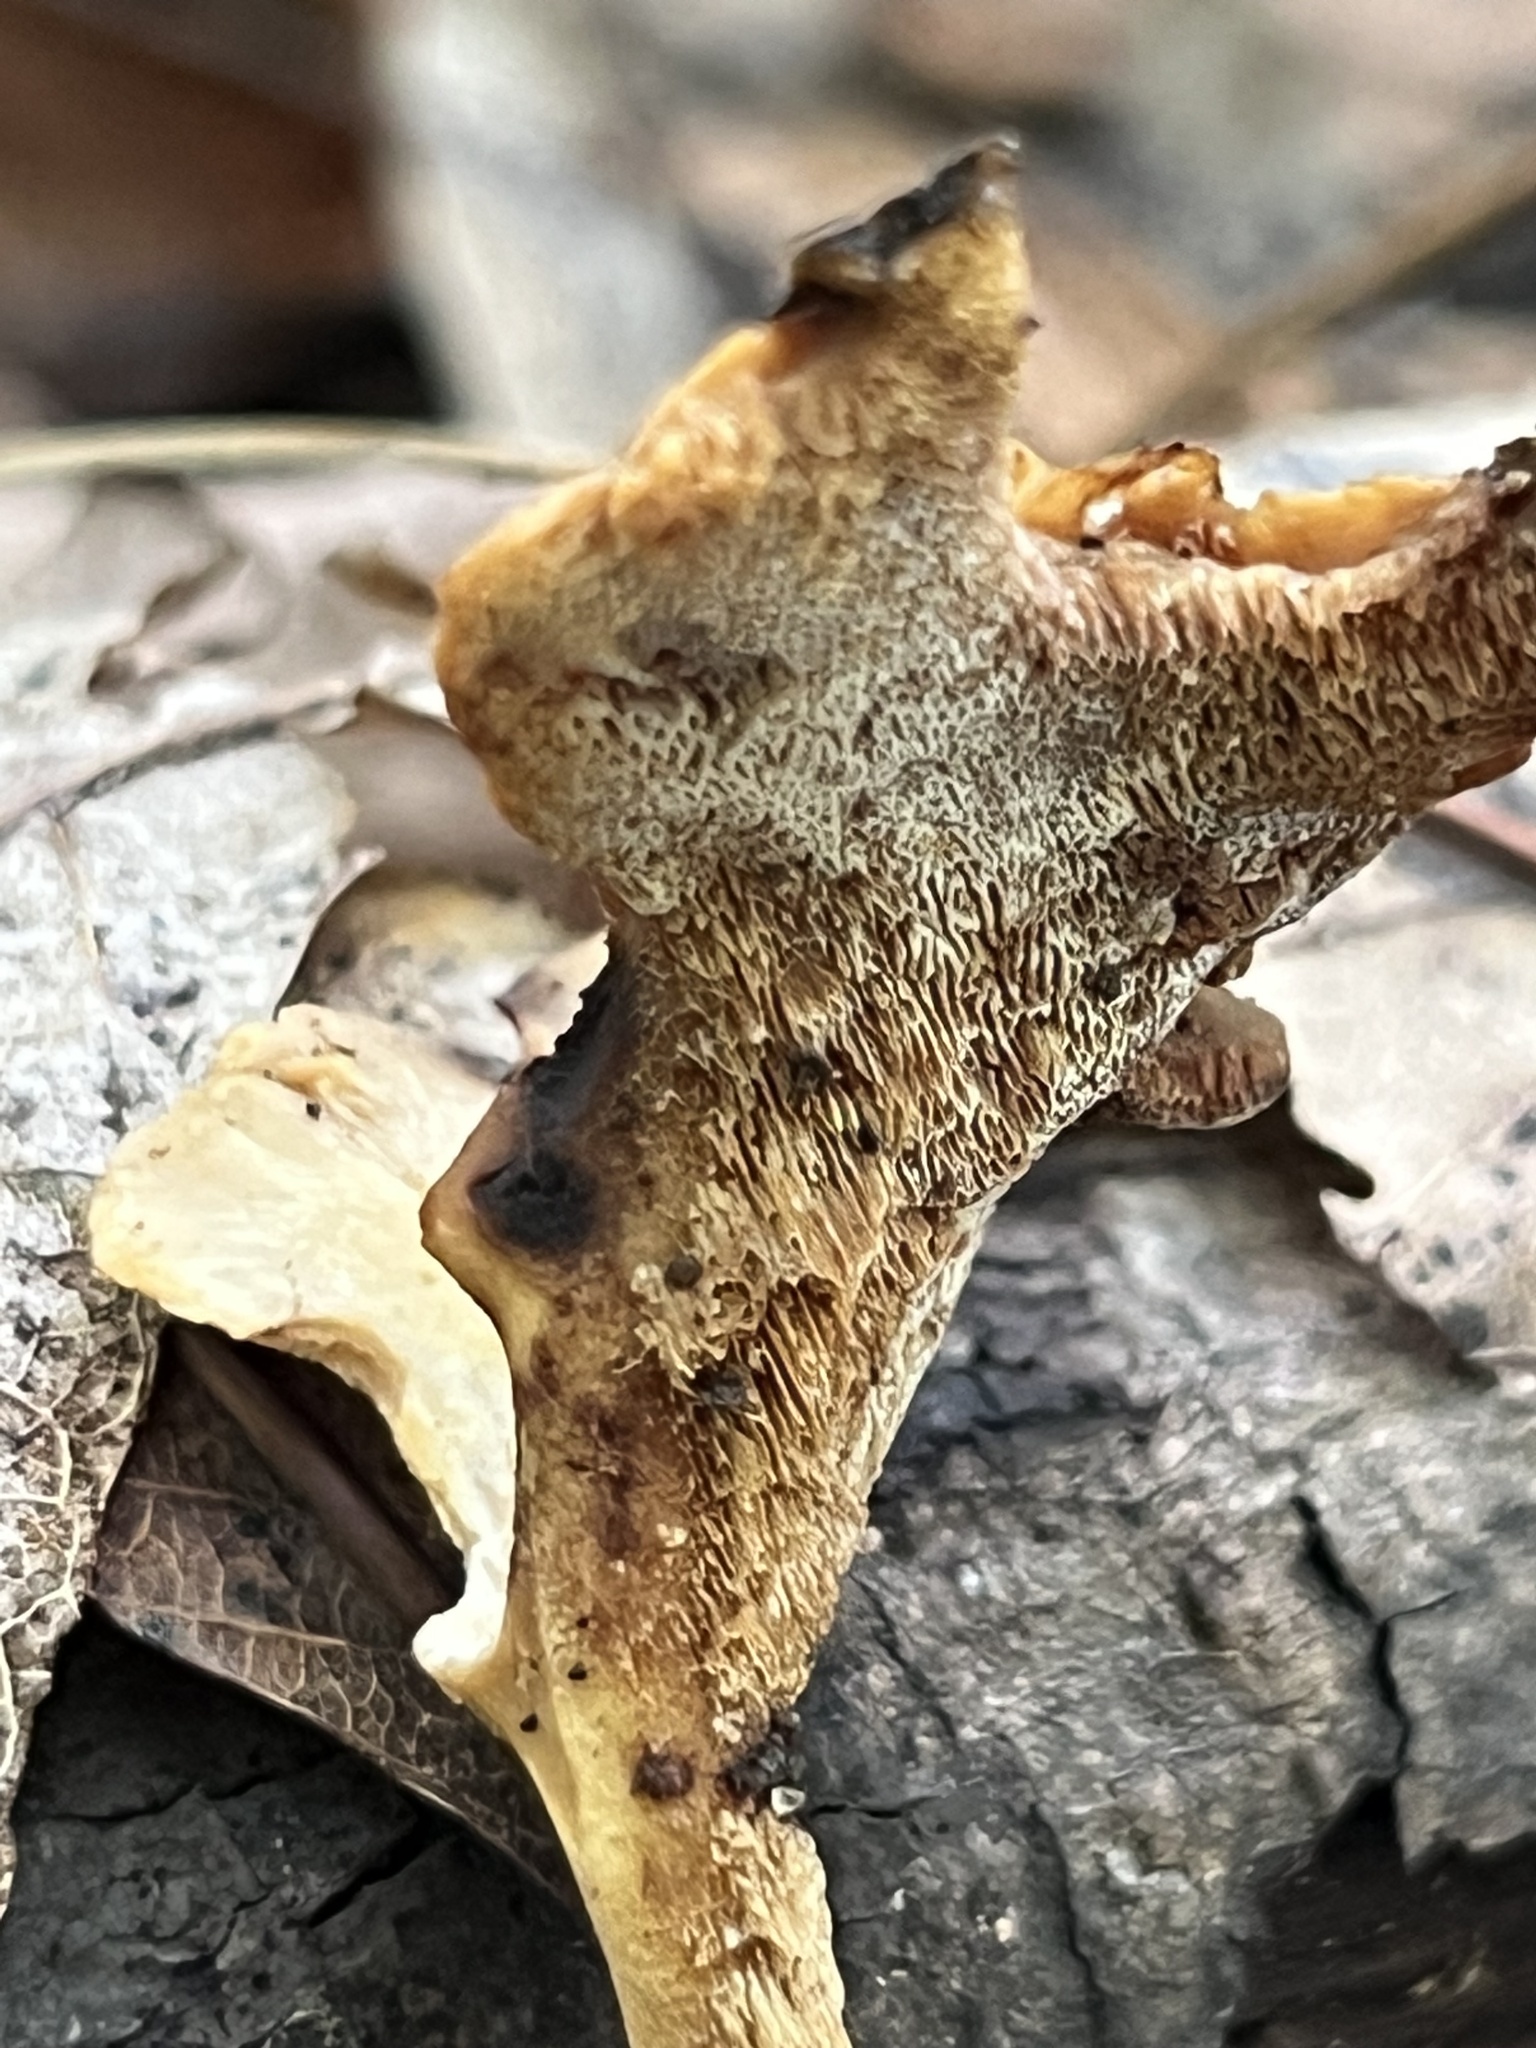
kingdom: Fungi
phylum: Basidiomycota
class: Agaricomycetes
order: Polyporales
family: Polyporaceae
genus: Cerioporus
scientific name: Cerioporus leptocephalus
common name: Blackfoot polypore
